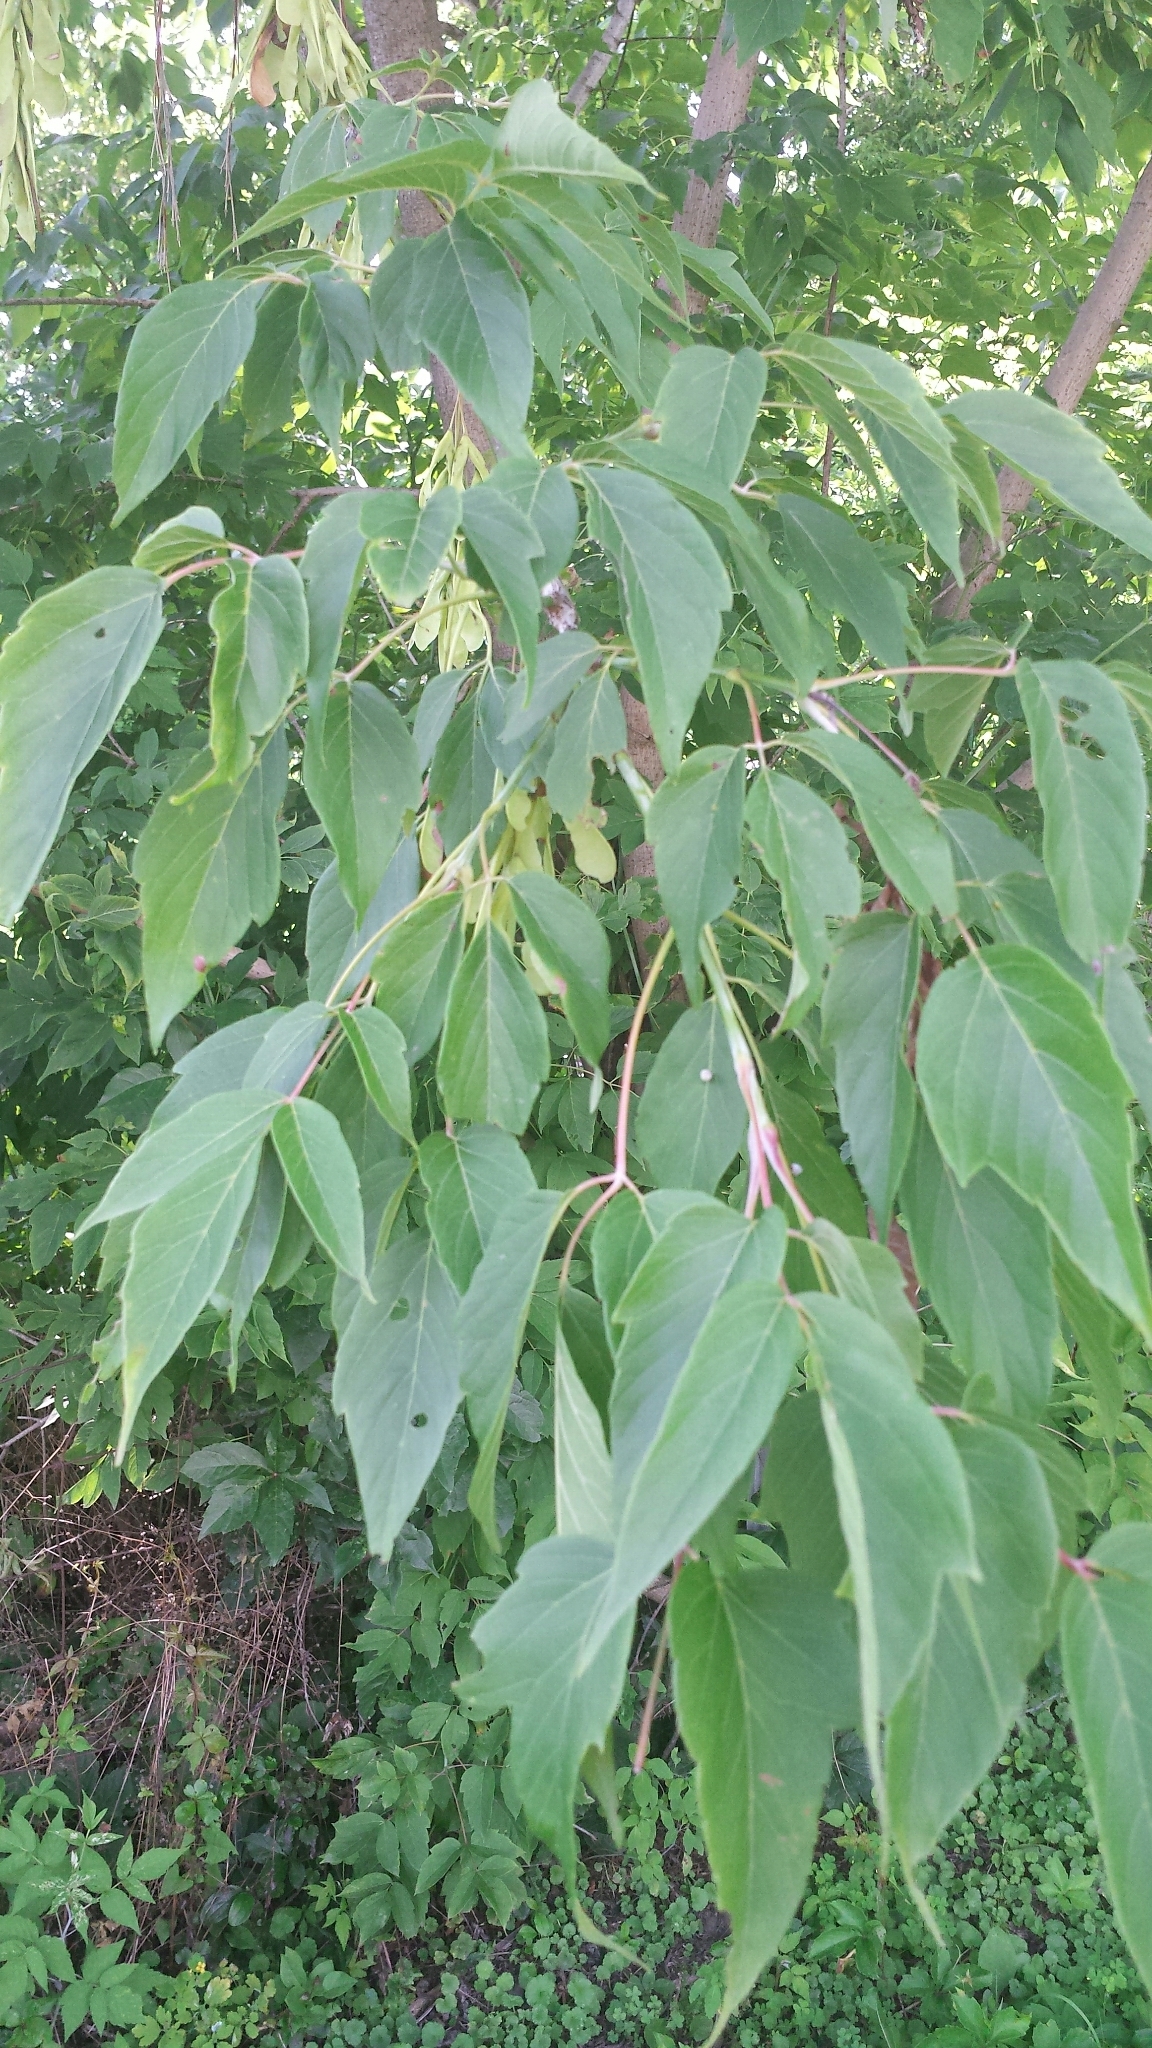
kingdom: Plantae
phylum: Tracheophyta
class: Magnoliopsida
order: Sapindales
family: Sapindaceae
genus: Acer
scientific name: Acer negundo
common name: Ashleaf maple
